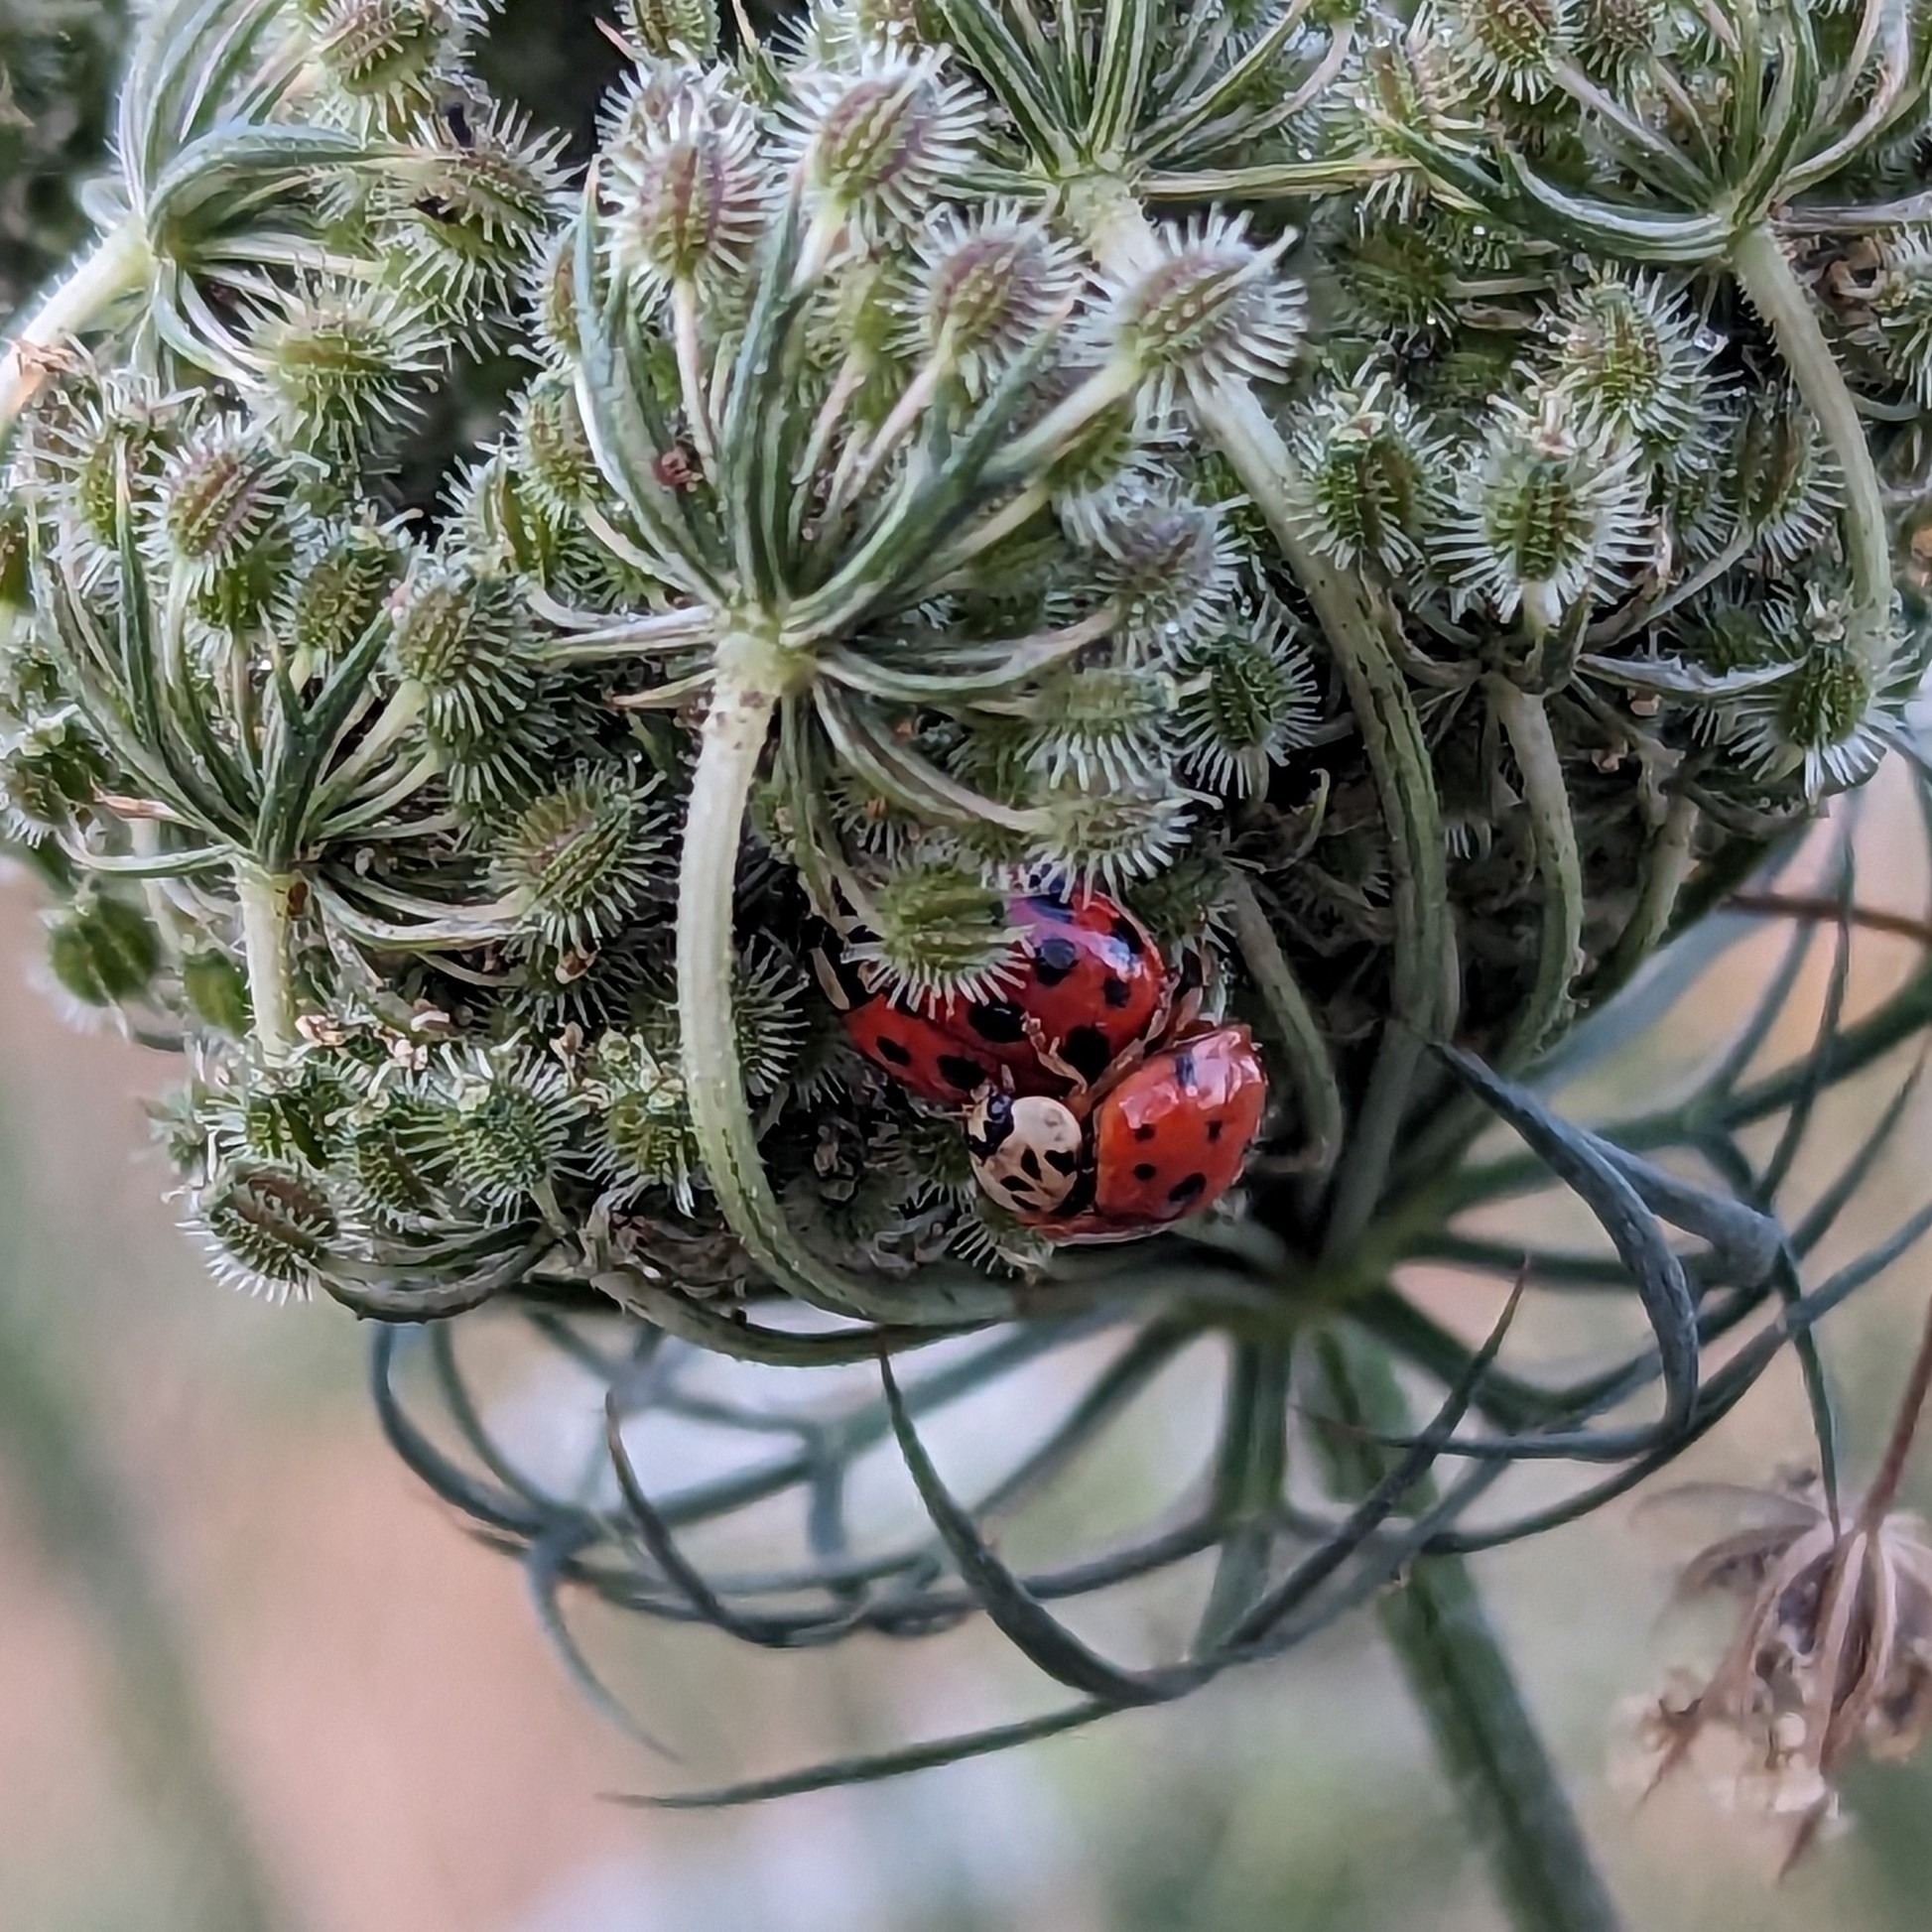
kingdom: Animalia
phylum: Arthropoda
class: Insecta
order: Coleoptera
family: Coccinellidae
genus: Harmonia
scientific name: Harmonia axyridis
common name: Harlequin ladybird
